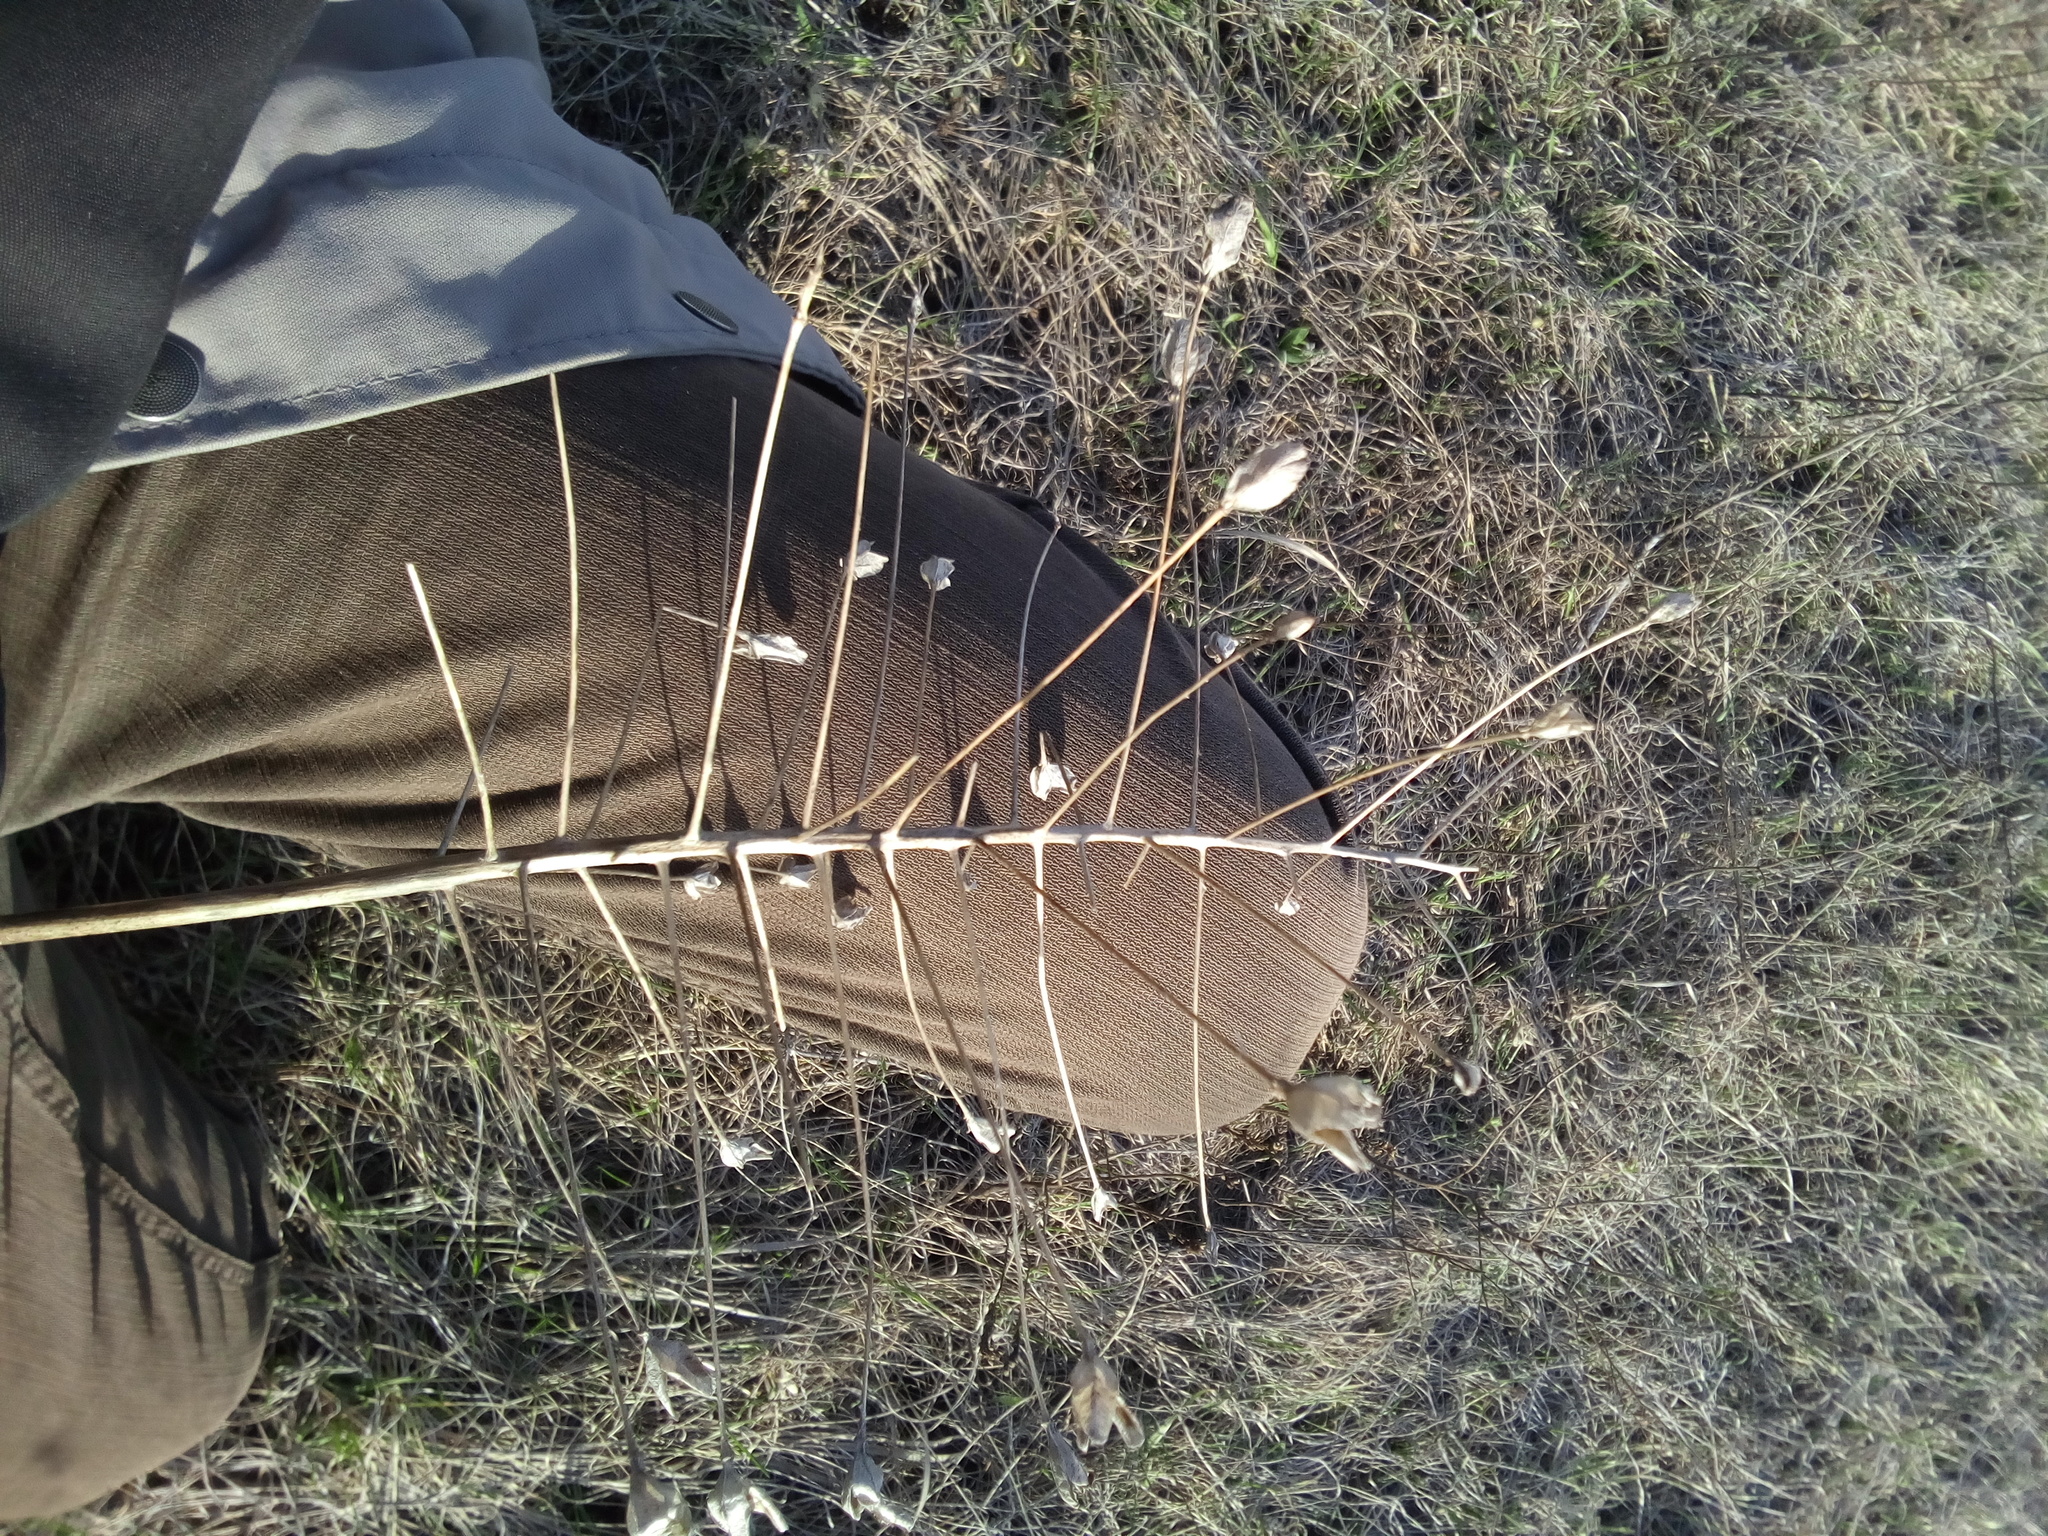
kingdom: Plantae
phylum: Tracheophyta
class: Liliopsida
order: Asparagales
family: Asparagaceae
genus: Bellevalia
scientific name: Bellevalia speciosa
